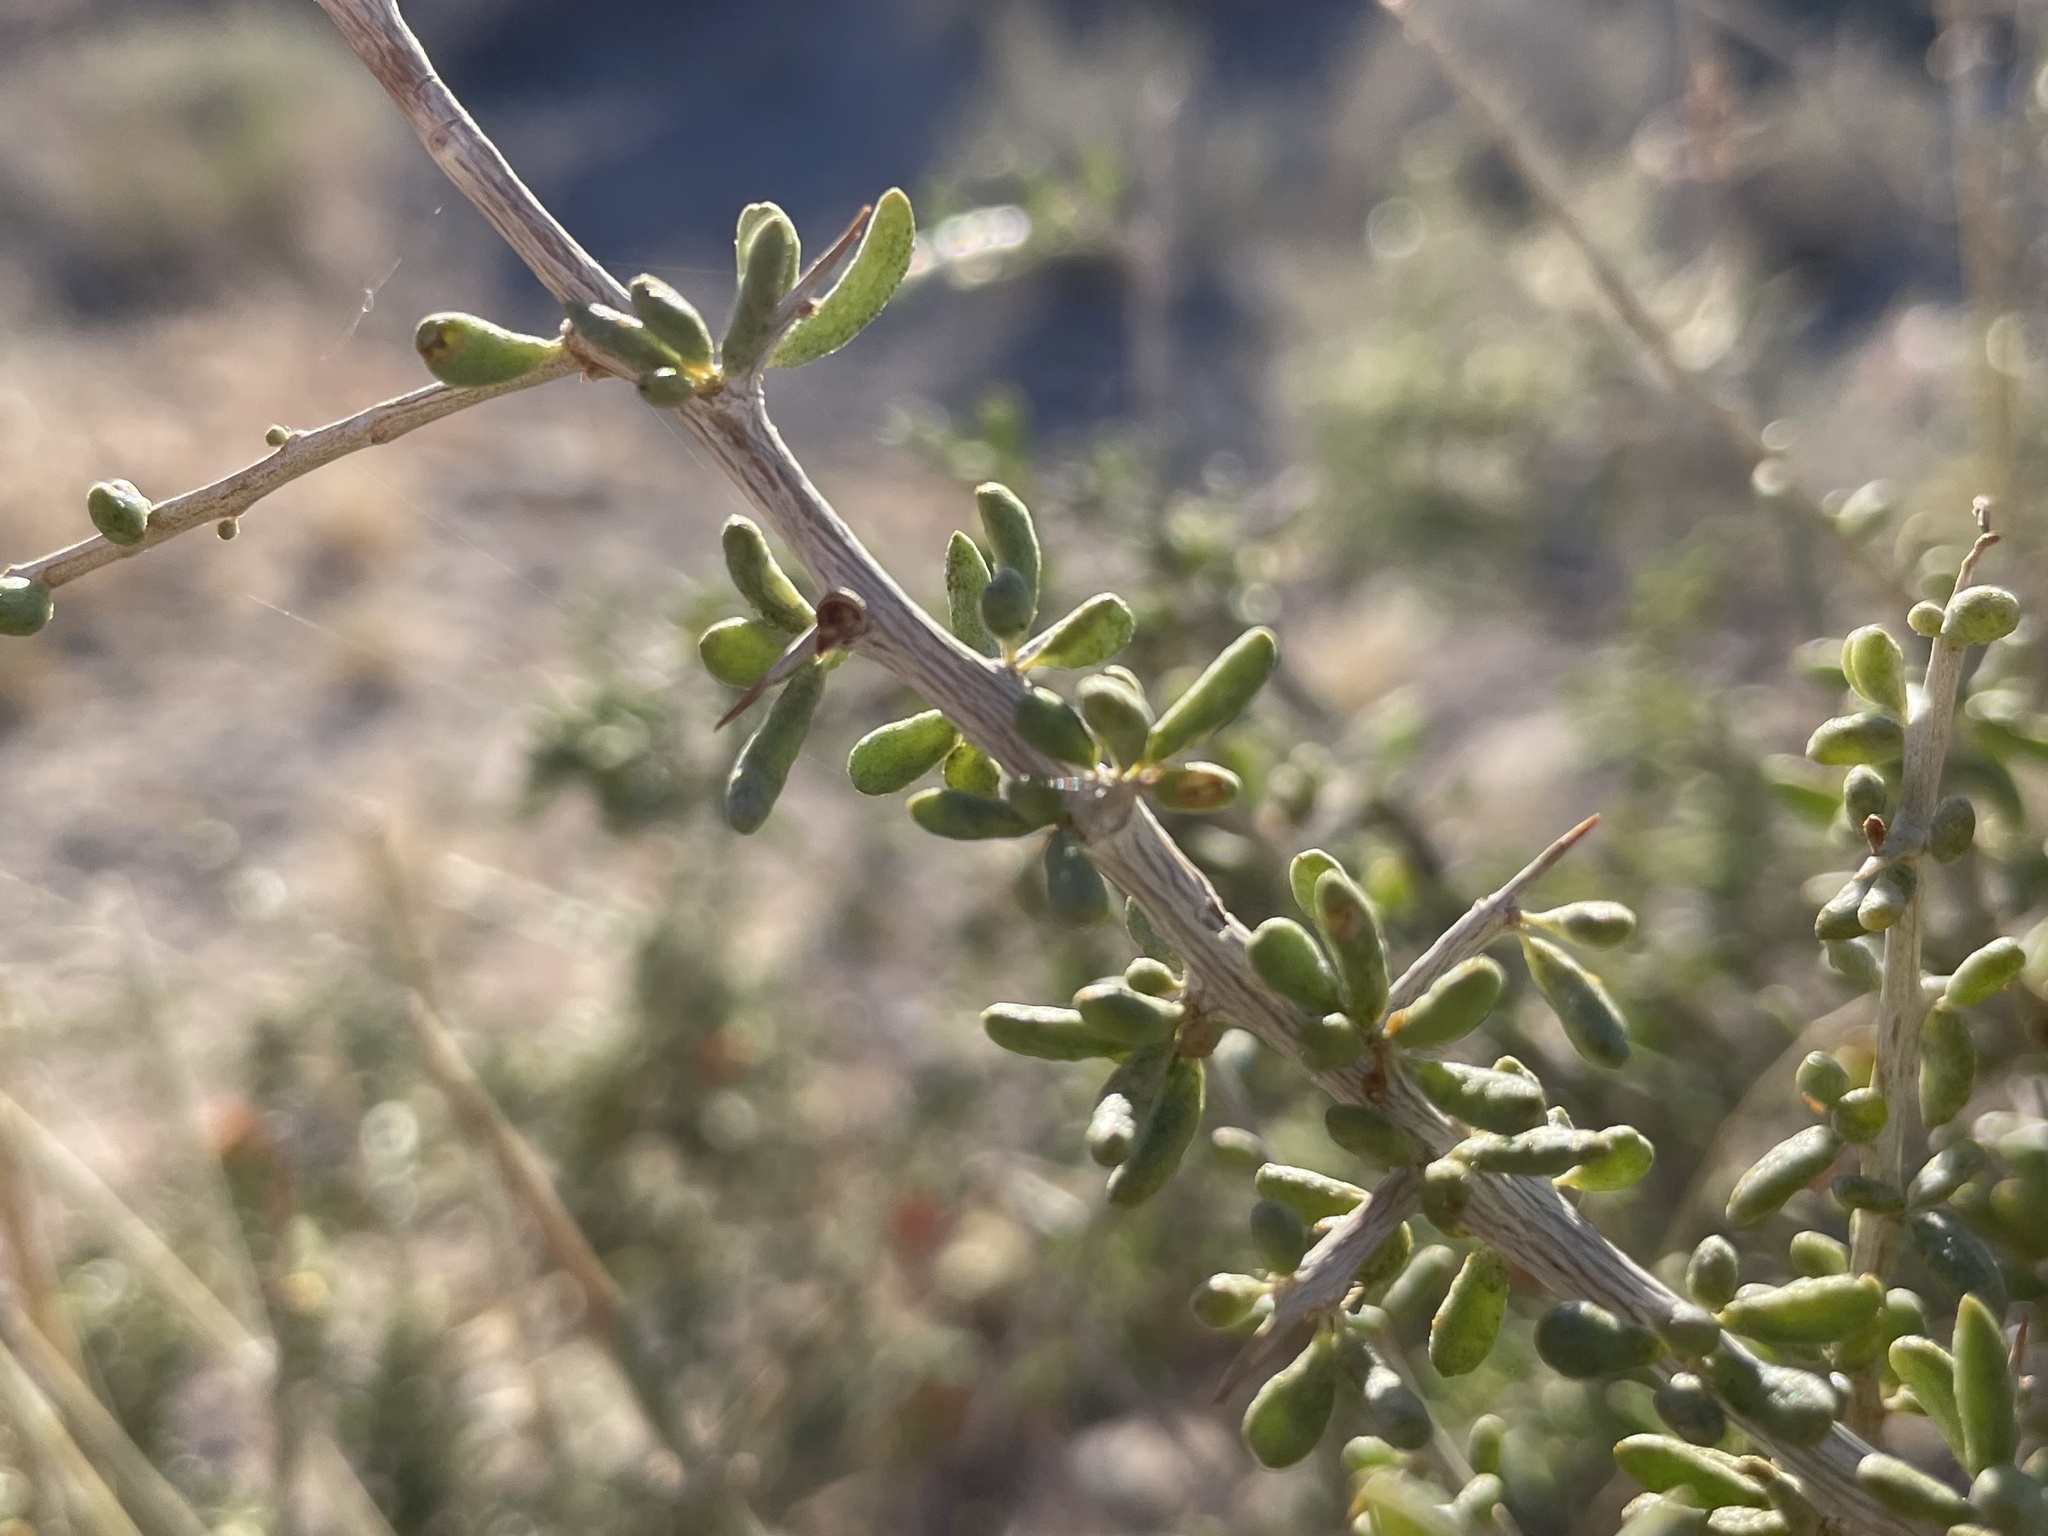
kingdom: Plantae
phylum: Tracheophyta
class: Magnoliopsida
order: Solanales
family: Solanaceae
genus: Lycium
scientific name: Lycium andersonii
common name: Water-jacket
